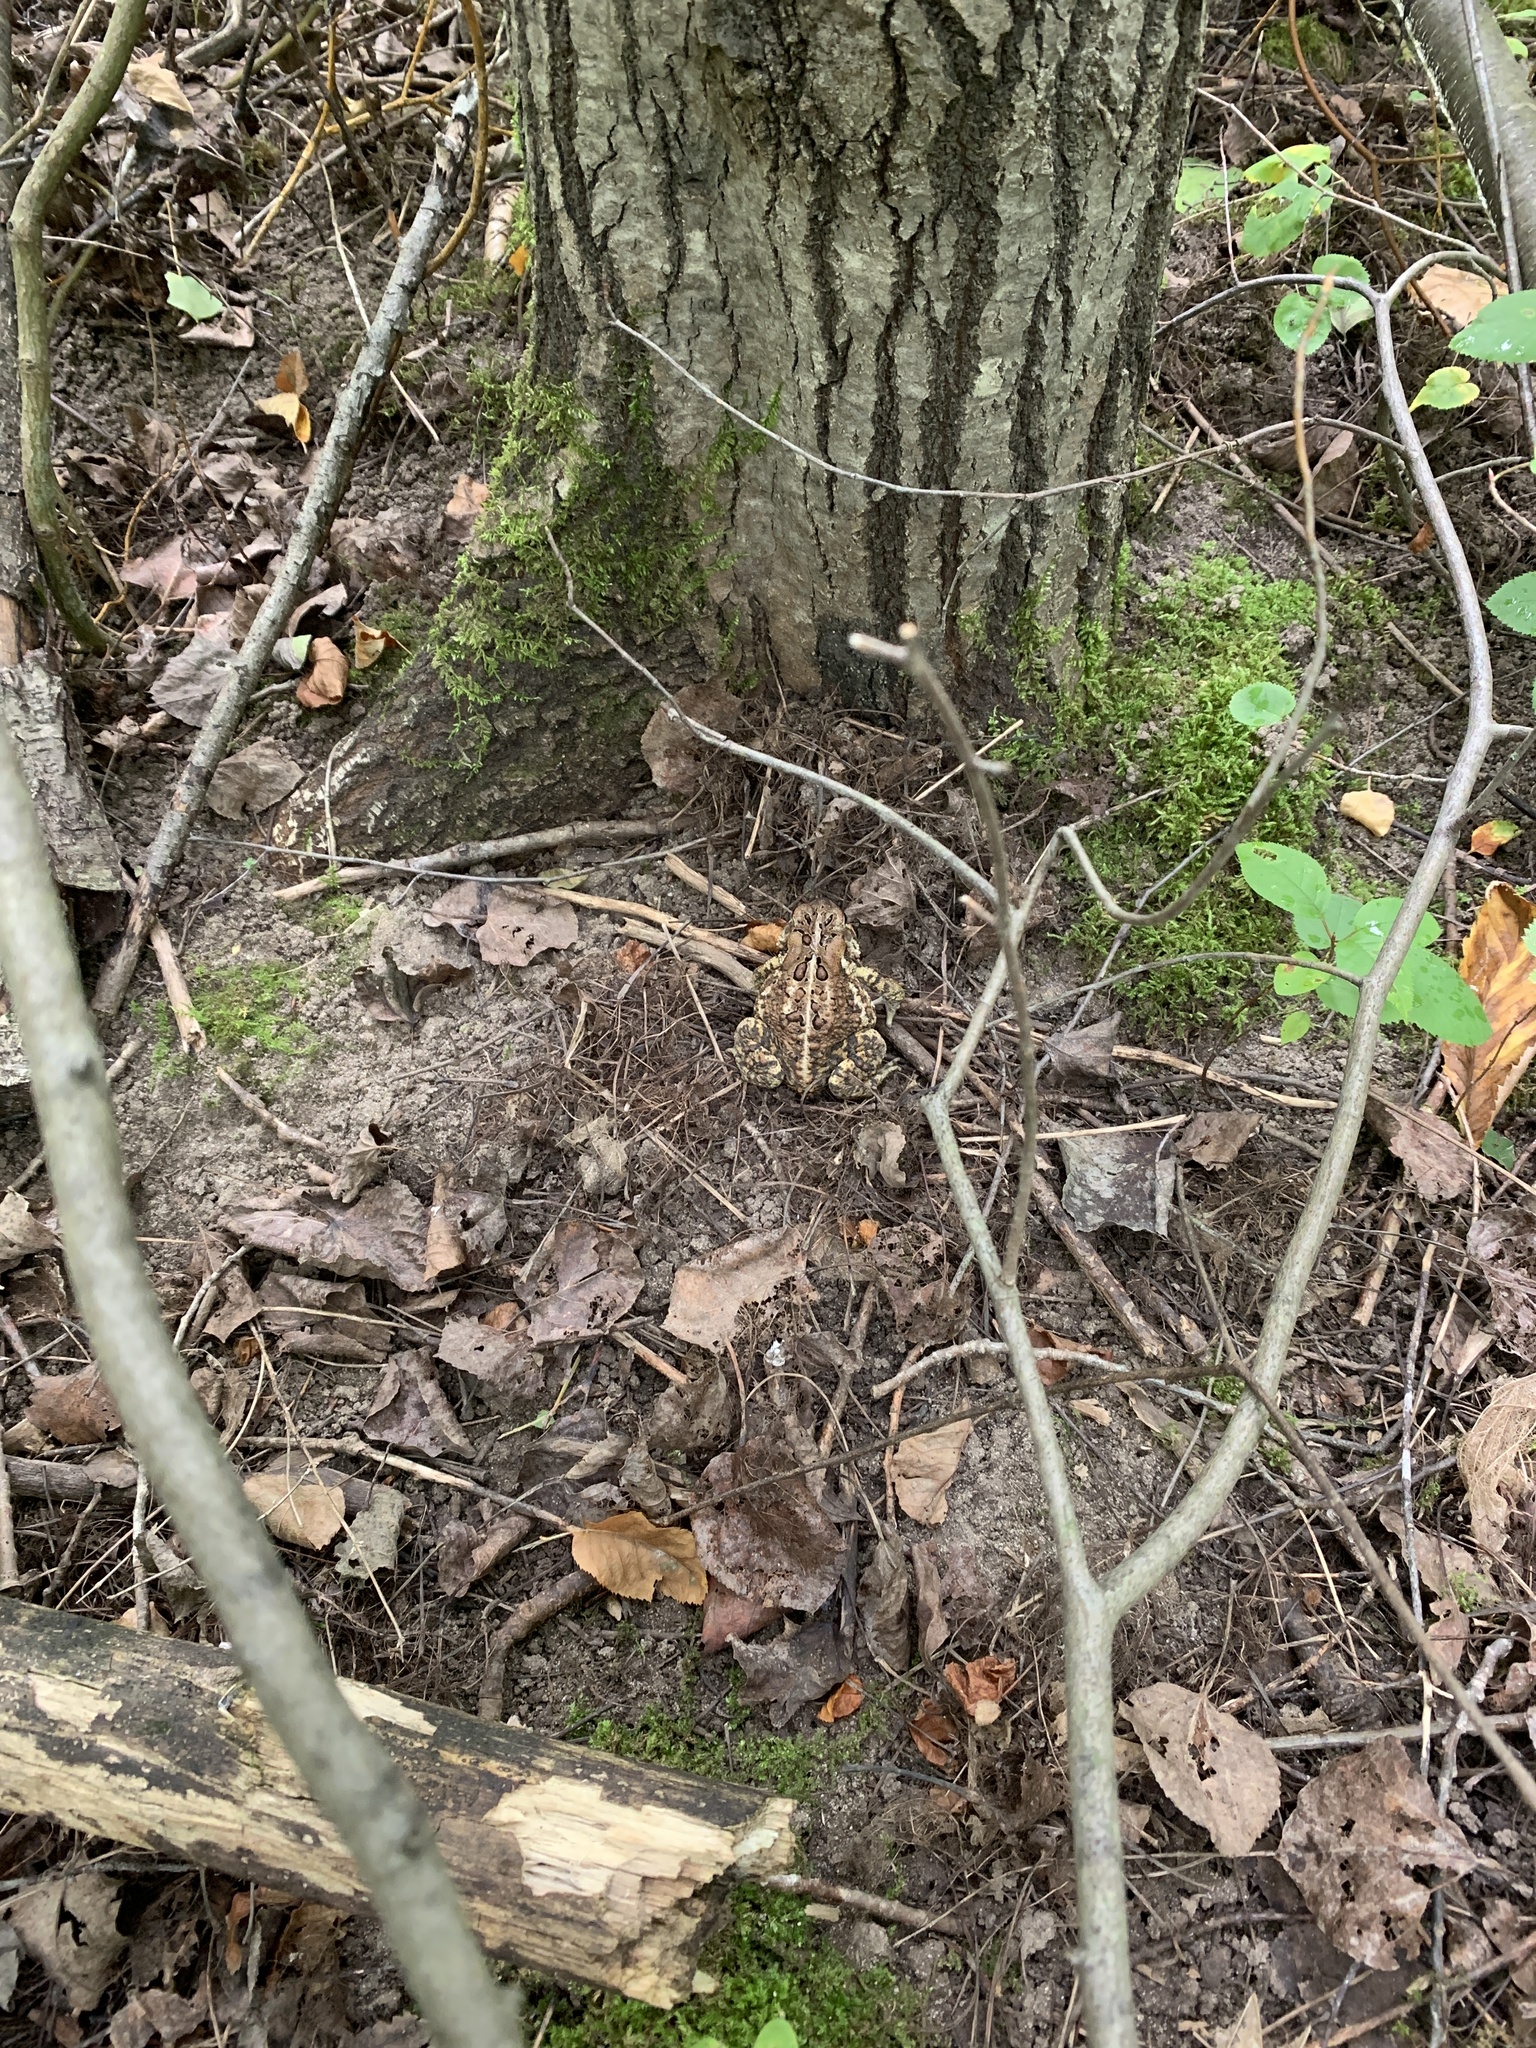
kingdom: Animalia
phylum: Chordata
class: Amphibia
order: Anura
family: Bufonidae
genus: Anaxyrus
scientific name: Anaxyrus americanus
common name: American toad
